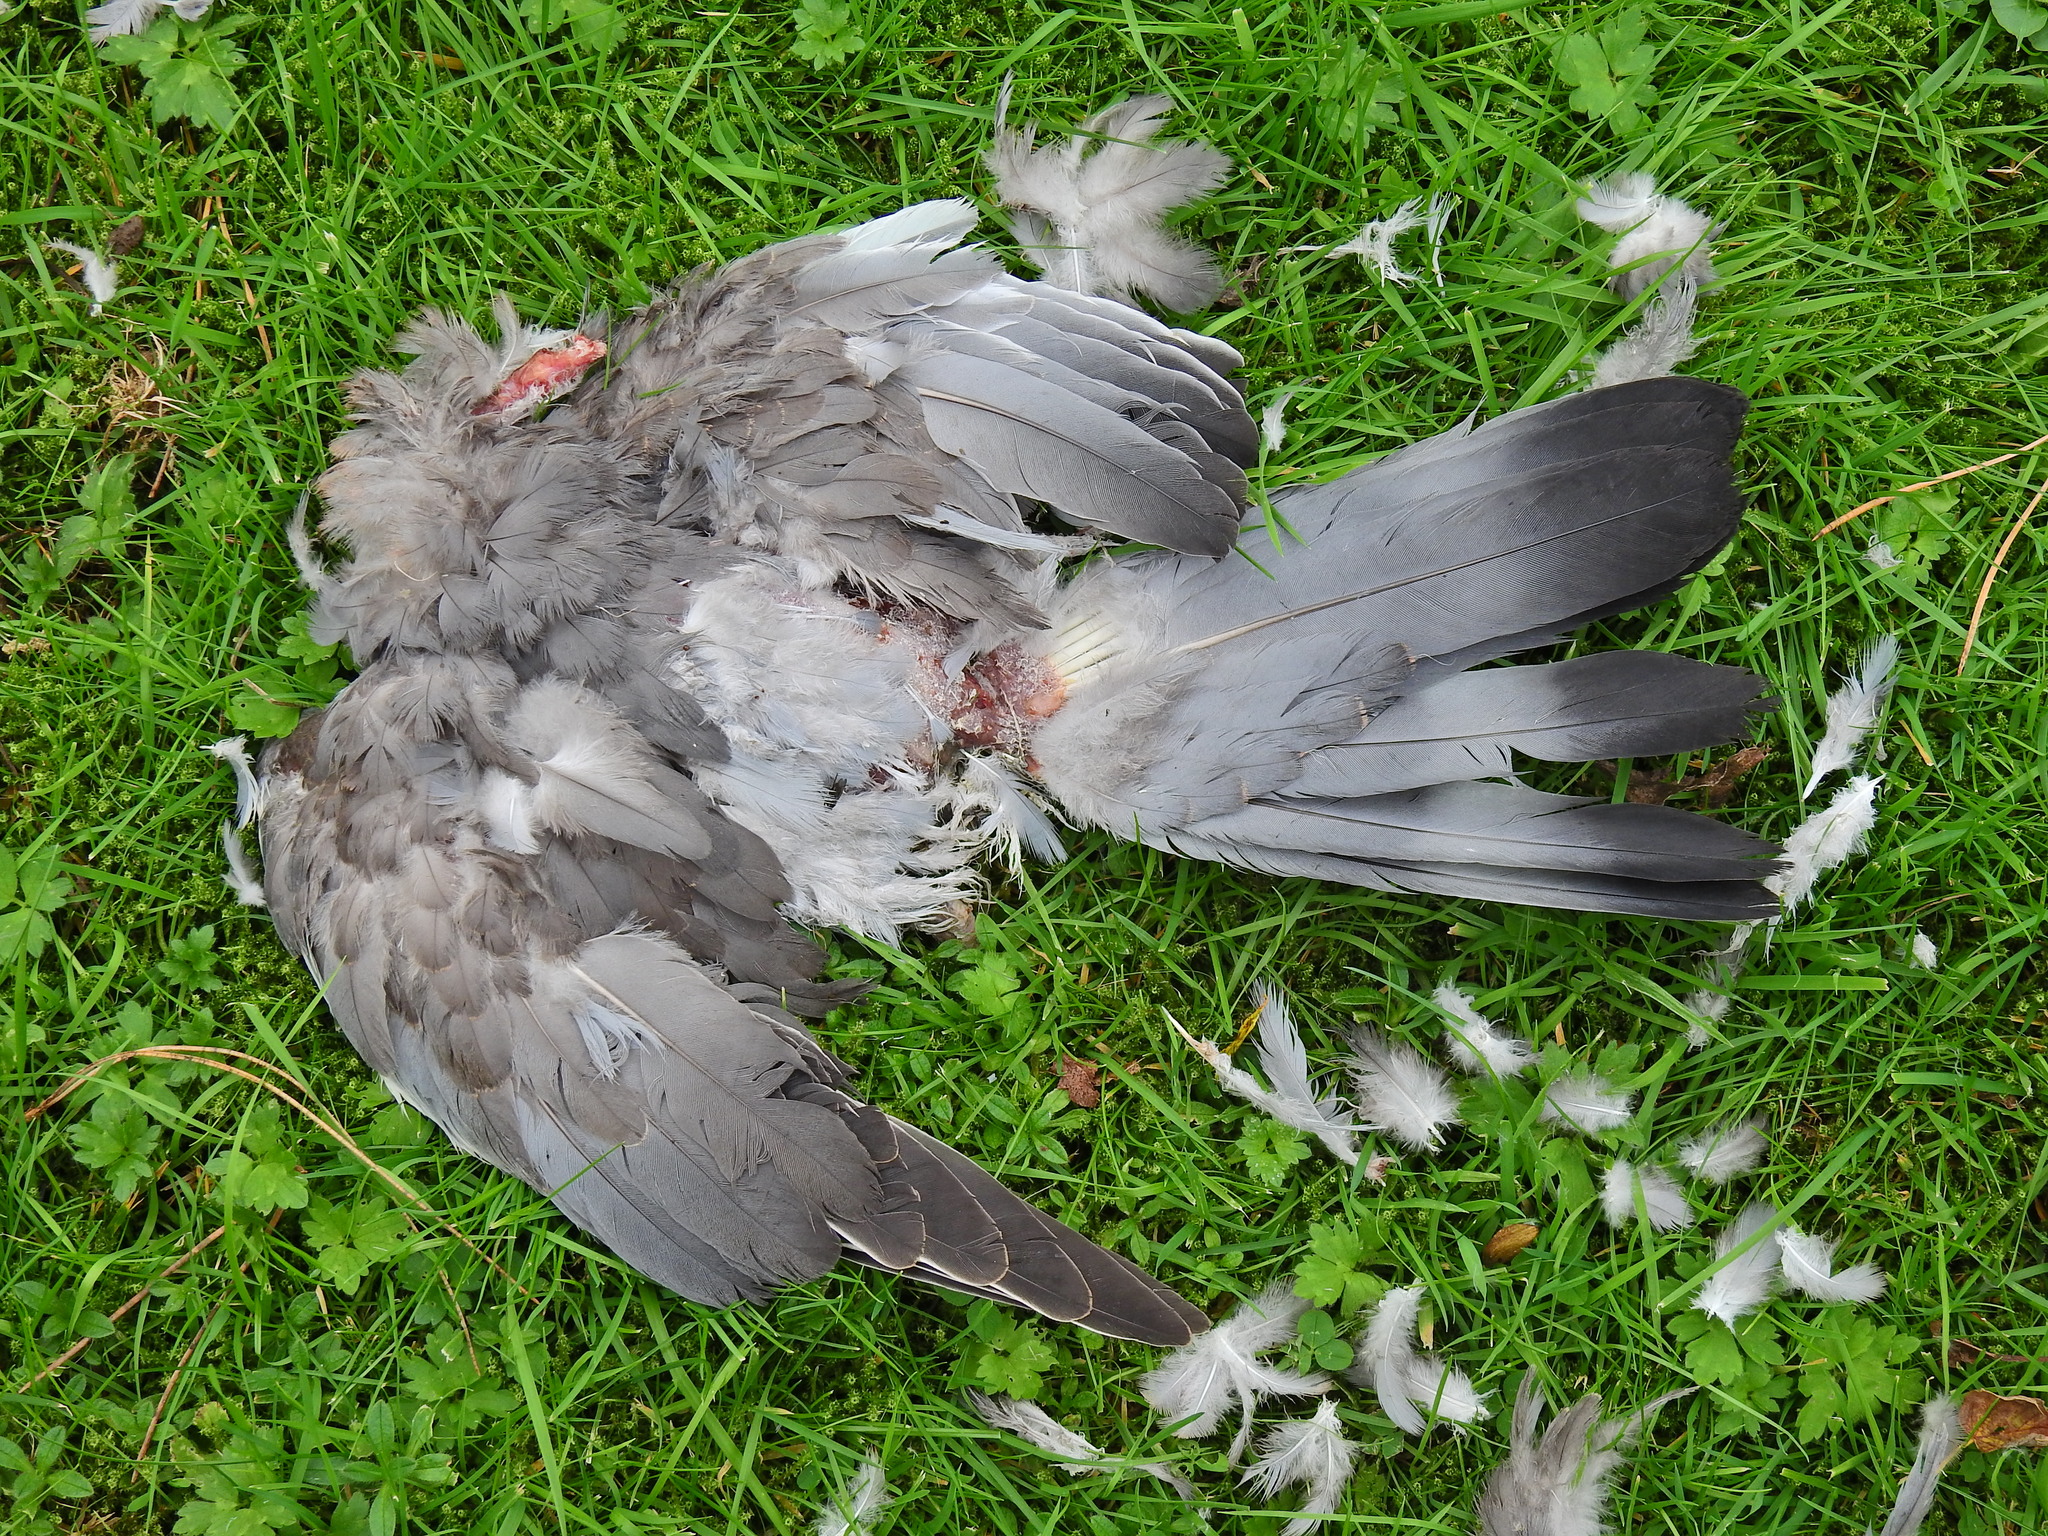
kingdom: Animalia
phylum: Chordata
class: Aves
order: Columbiformes
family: Columbidae
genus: Columba
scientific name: Columba palumbus
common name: Common wood pigeon
